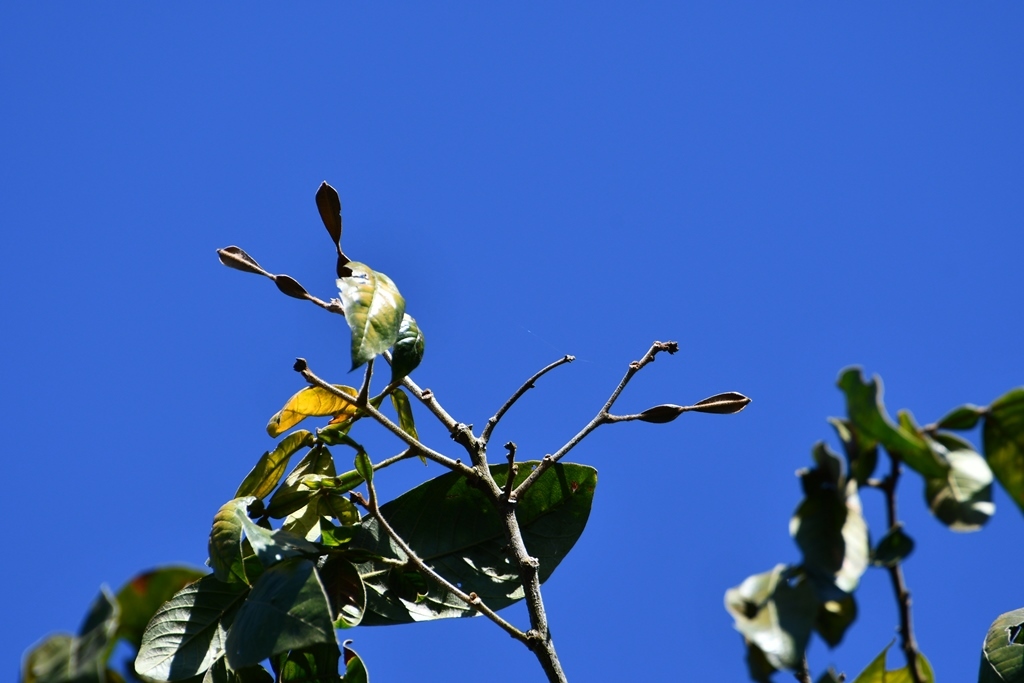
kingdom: Plantae
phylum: Tracheophyta
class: Magnoliopsida
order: Fabales
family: Fabaceae
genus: Inga
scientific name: Inga chiapensis
